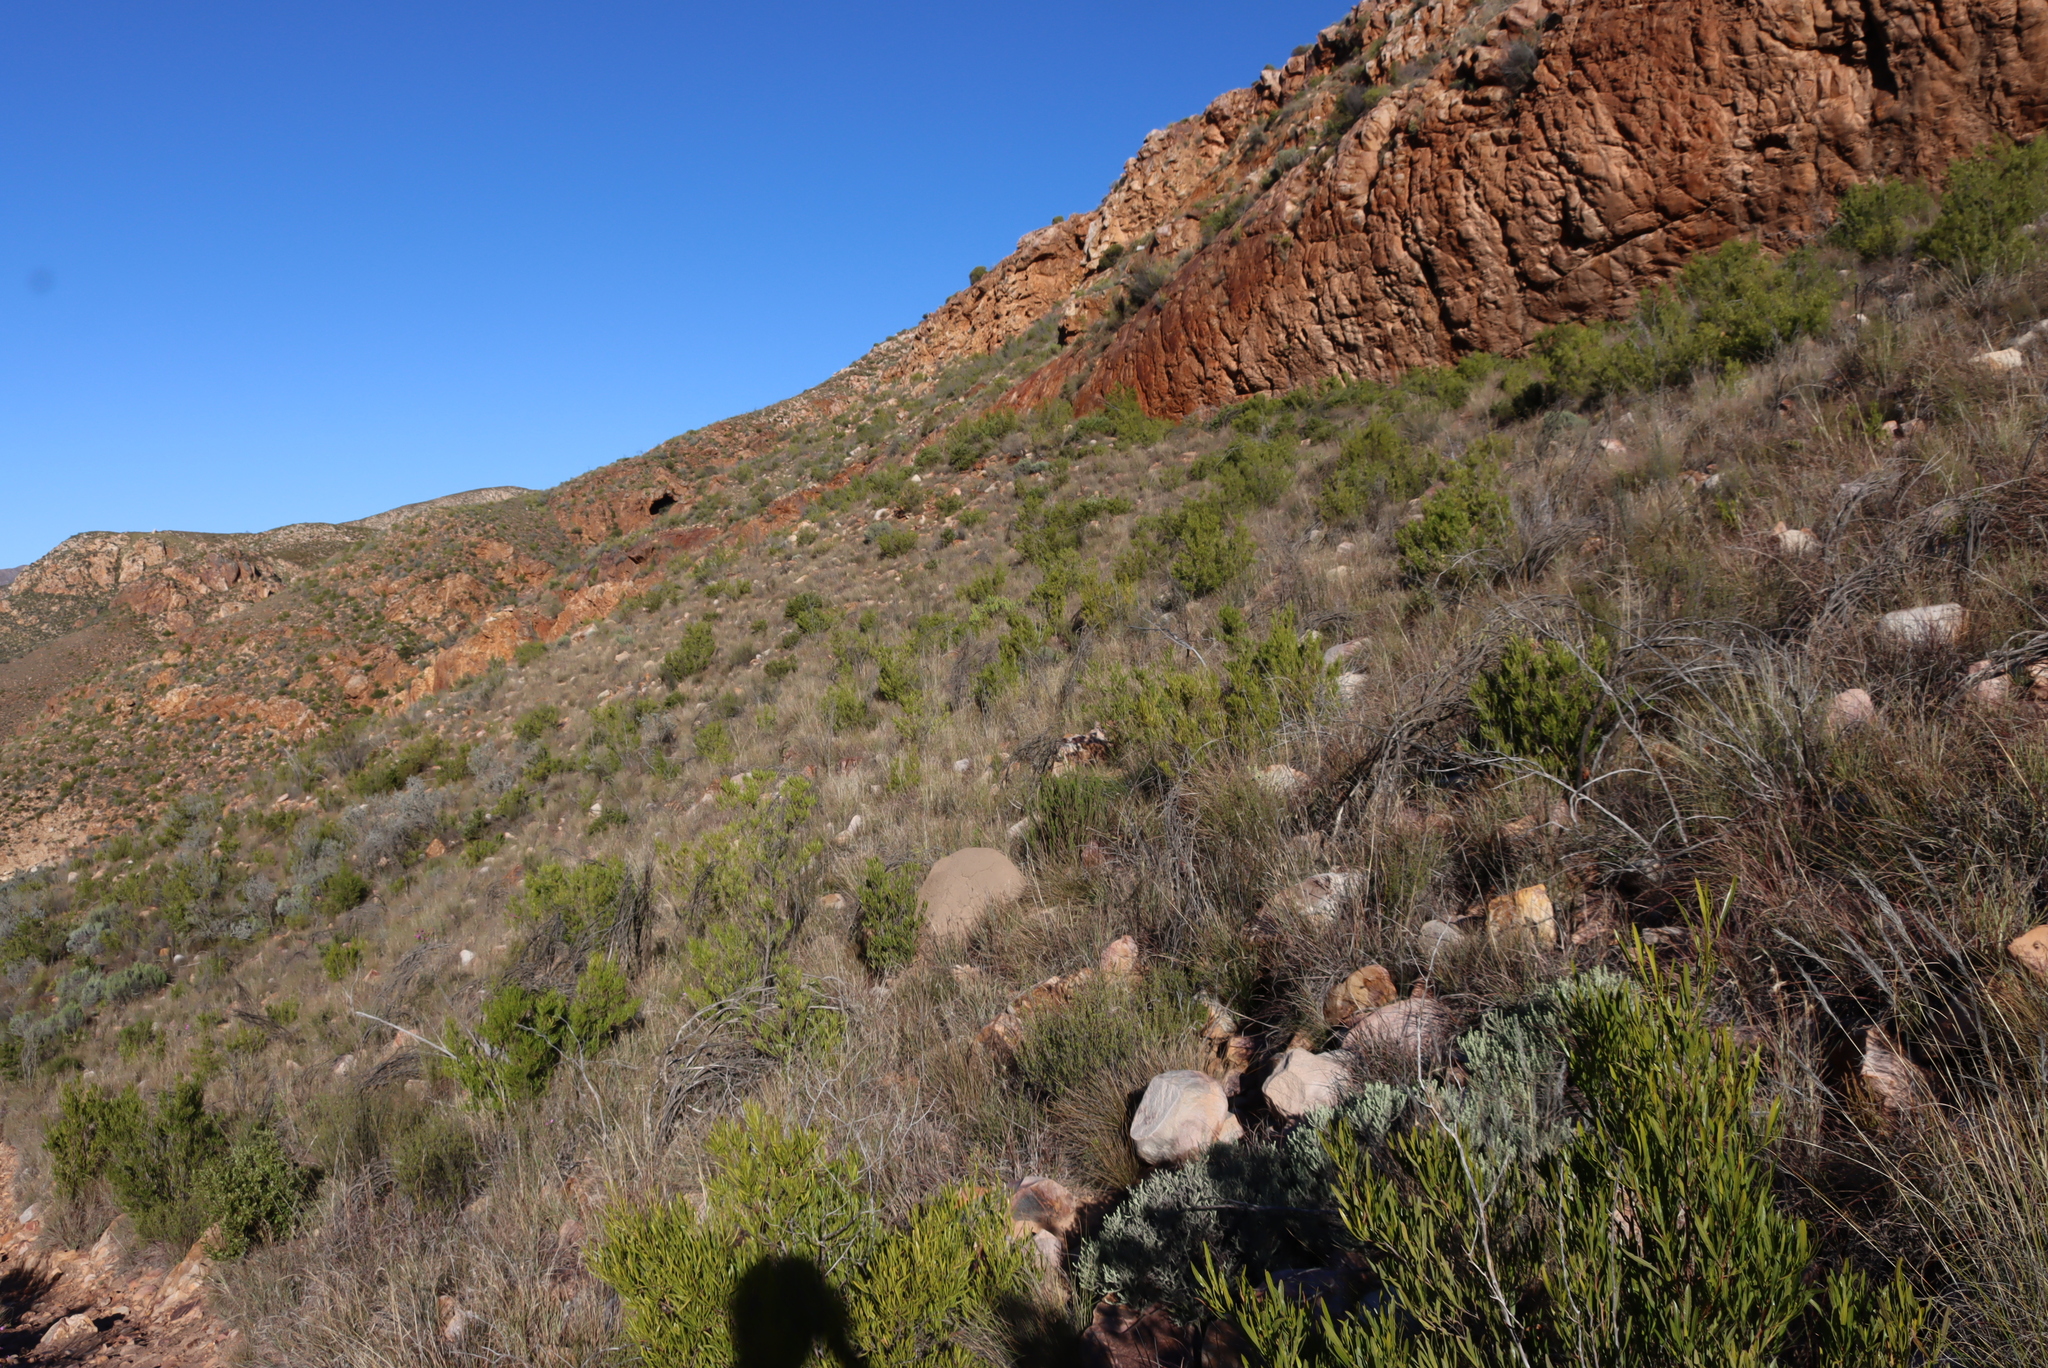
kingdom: Plantae
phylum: Tracheophyta
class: Magnoliopsida
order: Sapindales
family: Sapindaceae
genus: Dodonaea
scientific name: Dodonaea viscosa
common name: Hopbush
